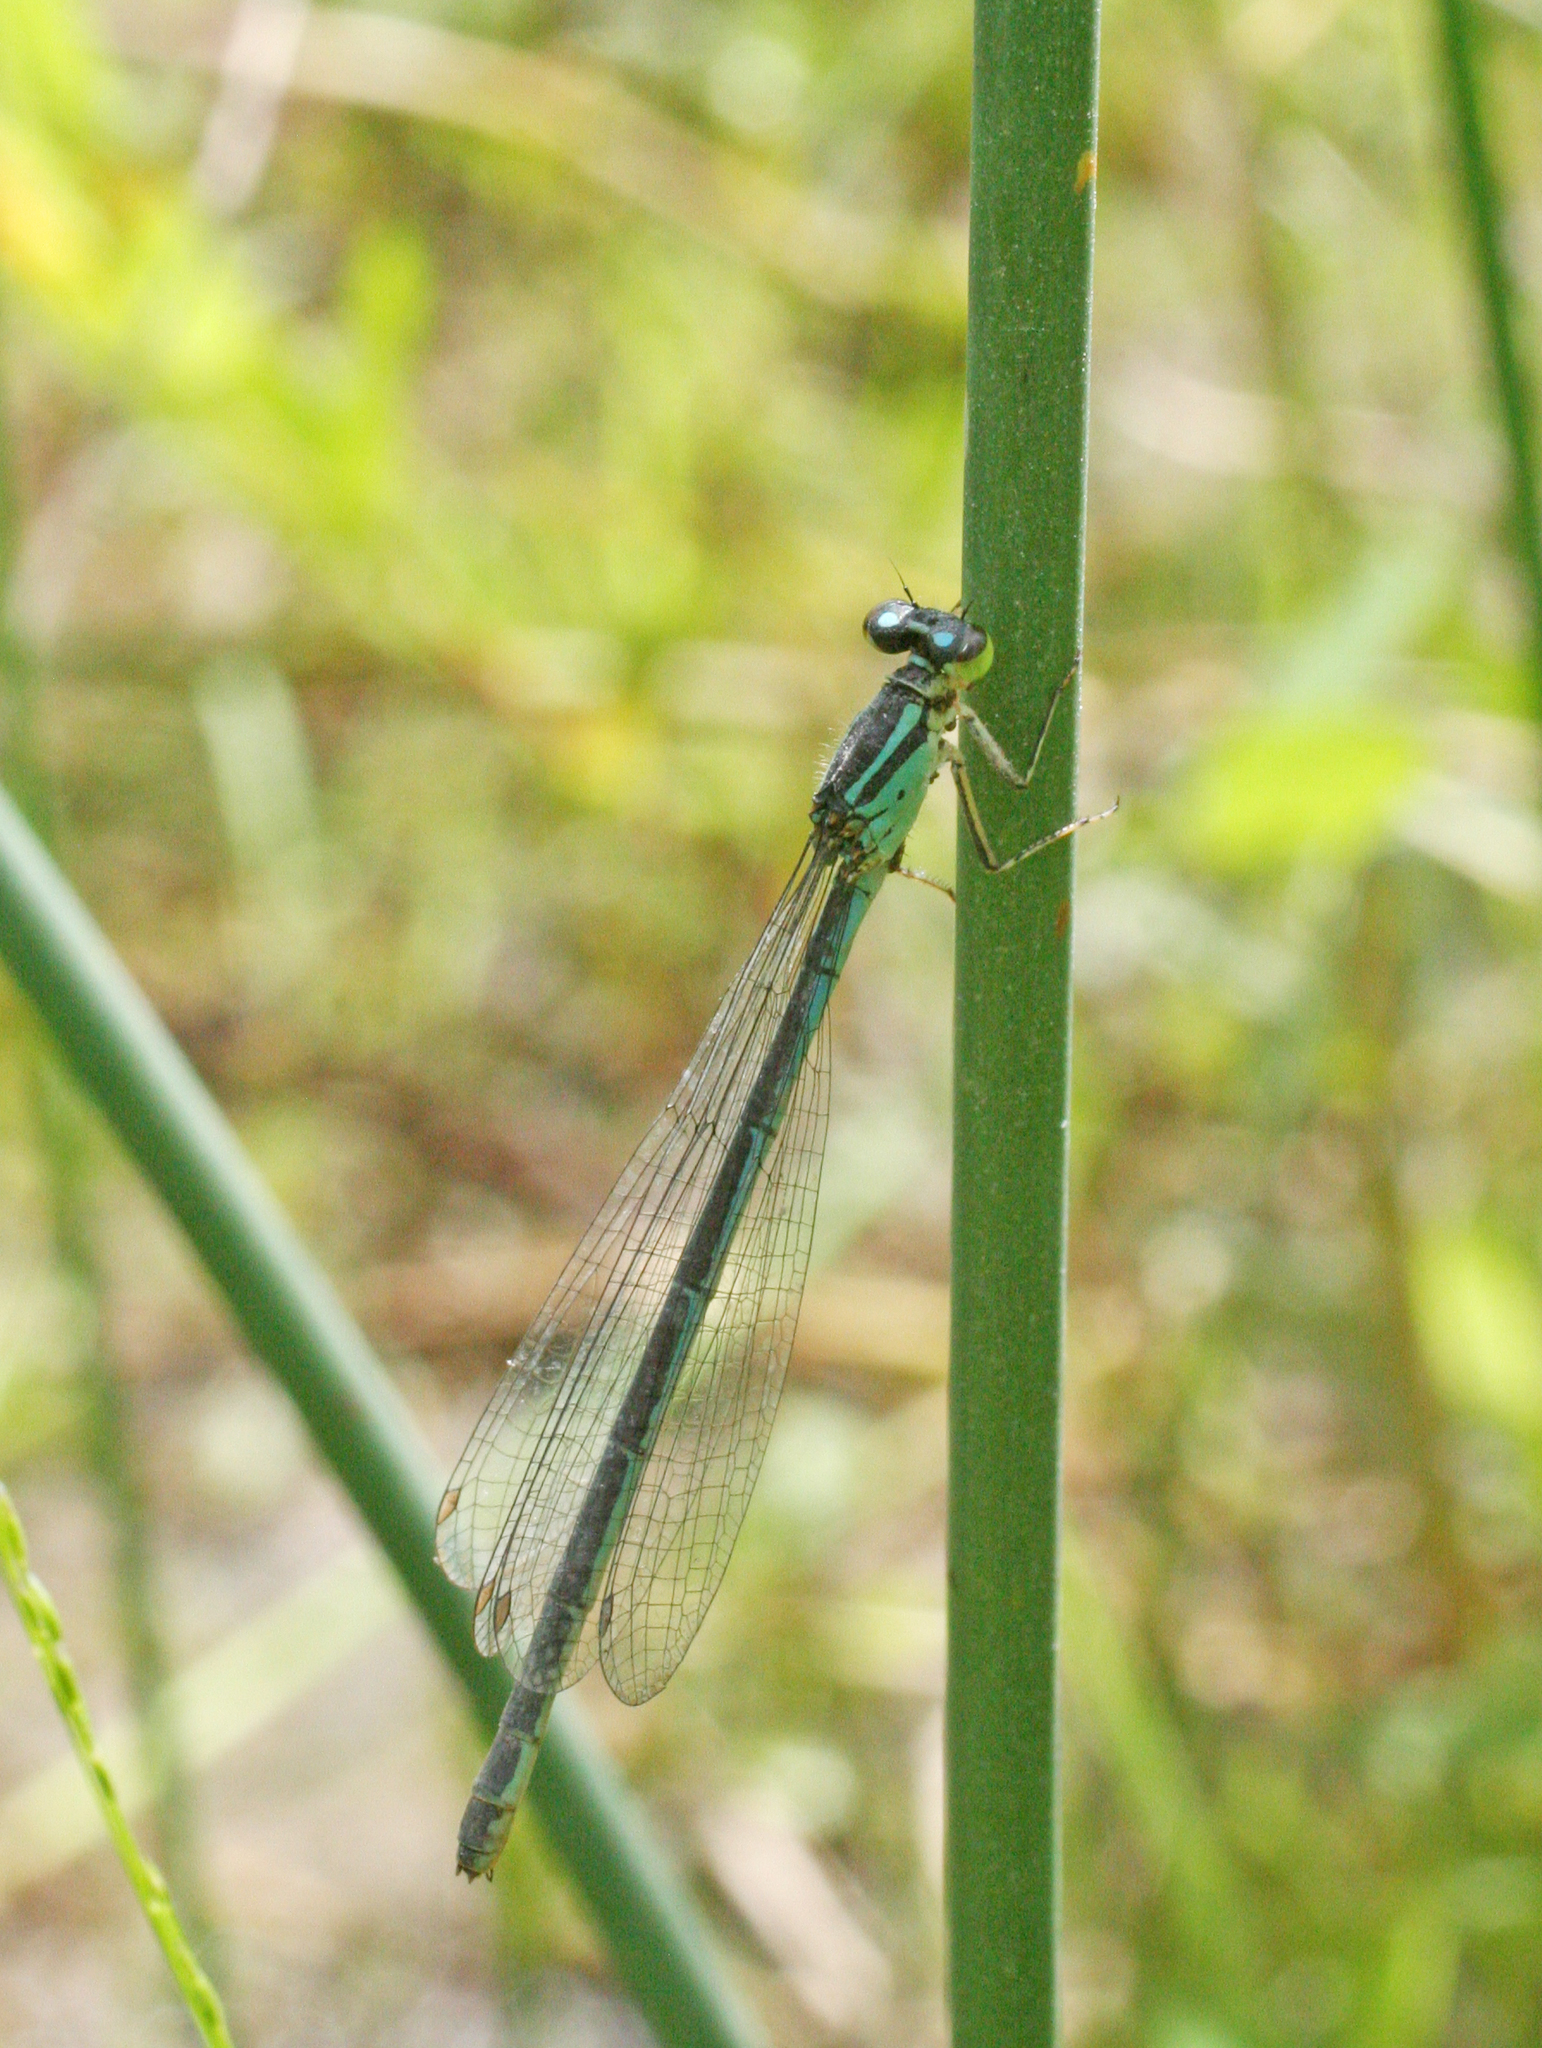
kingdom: Animalia
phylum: Arthropoda
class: Insecta
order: Odonata
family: Coenagrionidae
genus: Coenagrion
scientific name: Coenagrion lanceolatum
